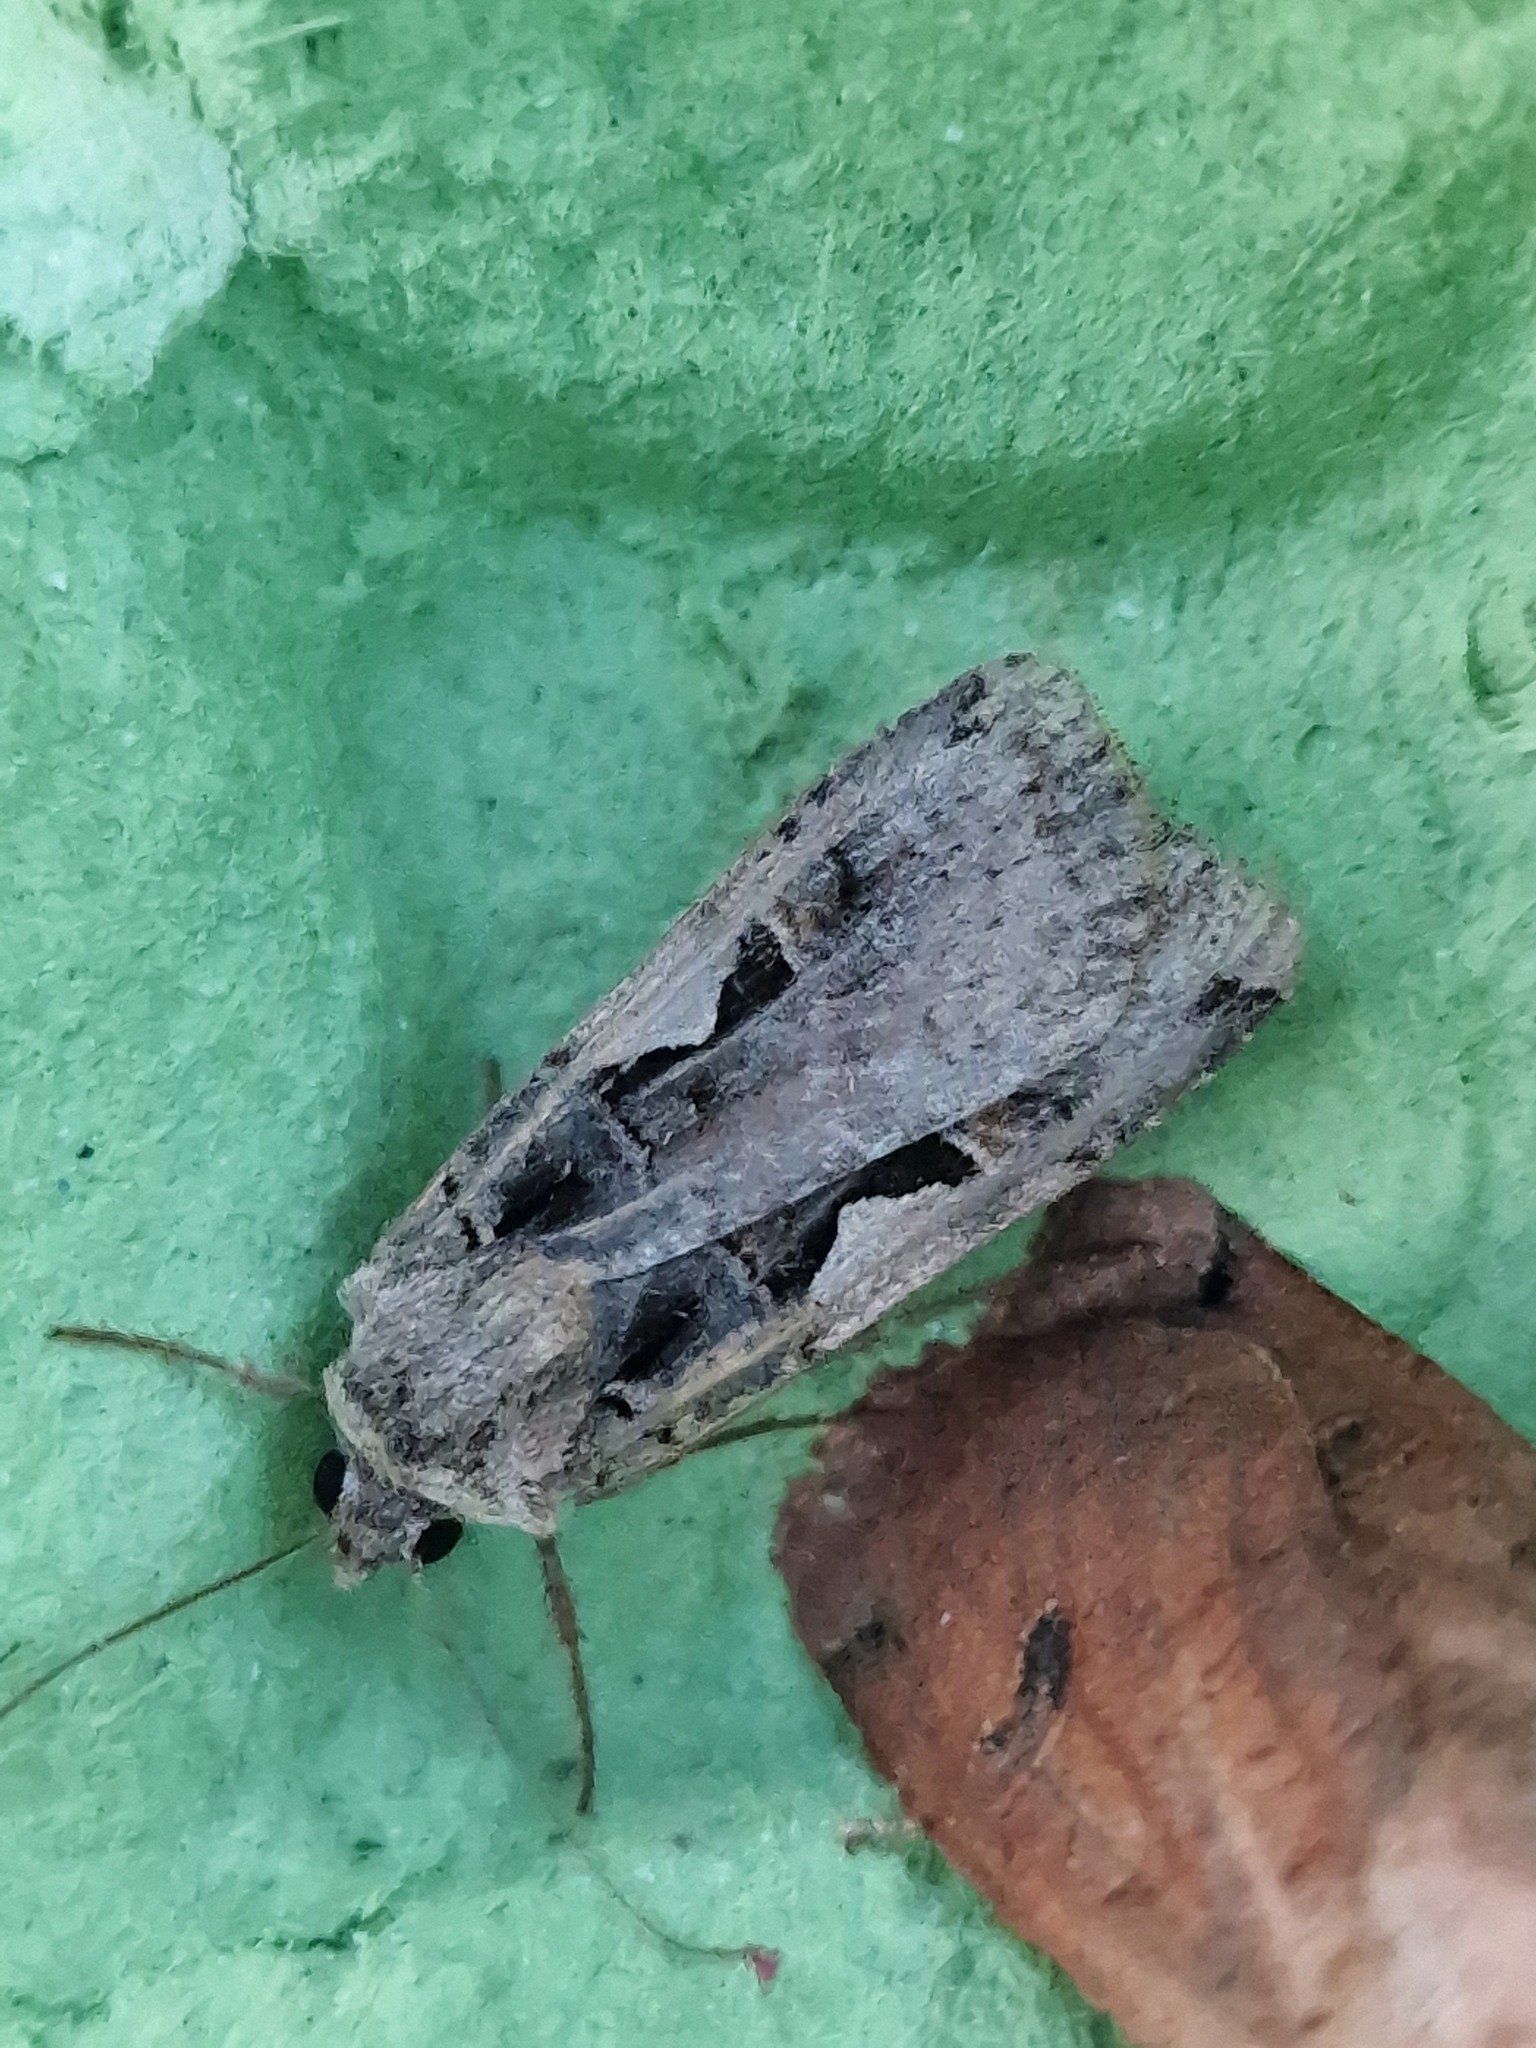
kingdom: Animalia
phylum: Arthropoda
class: Insecta
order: Lepidoptera
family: Noctuidae
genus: Xestia
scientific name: Xestia c-nigrum
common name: Setaceous hebrew character
